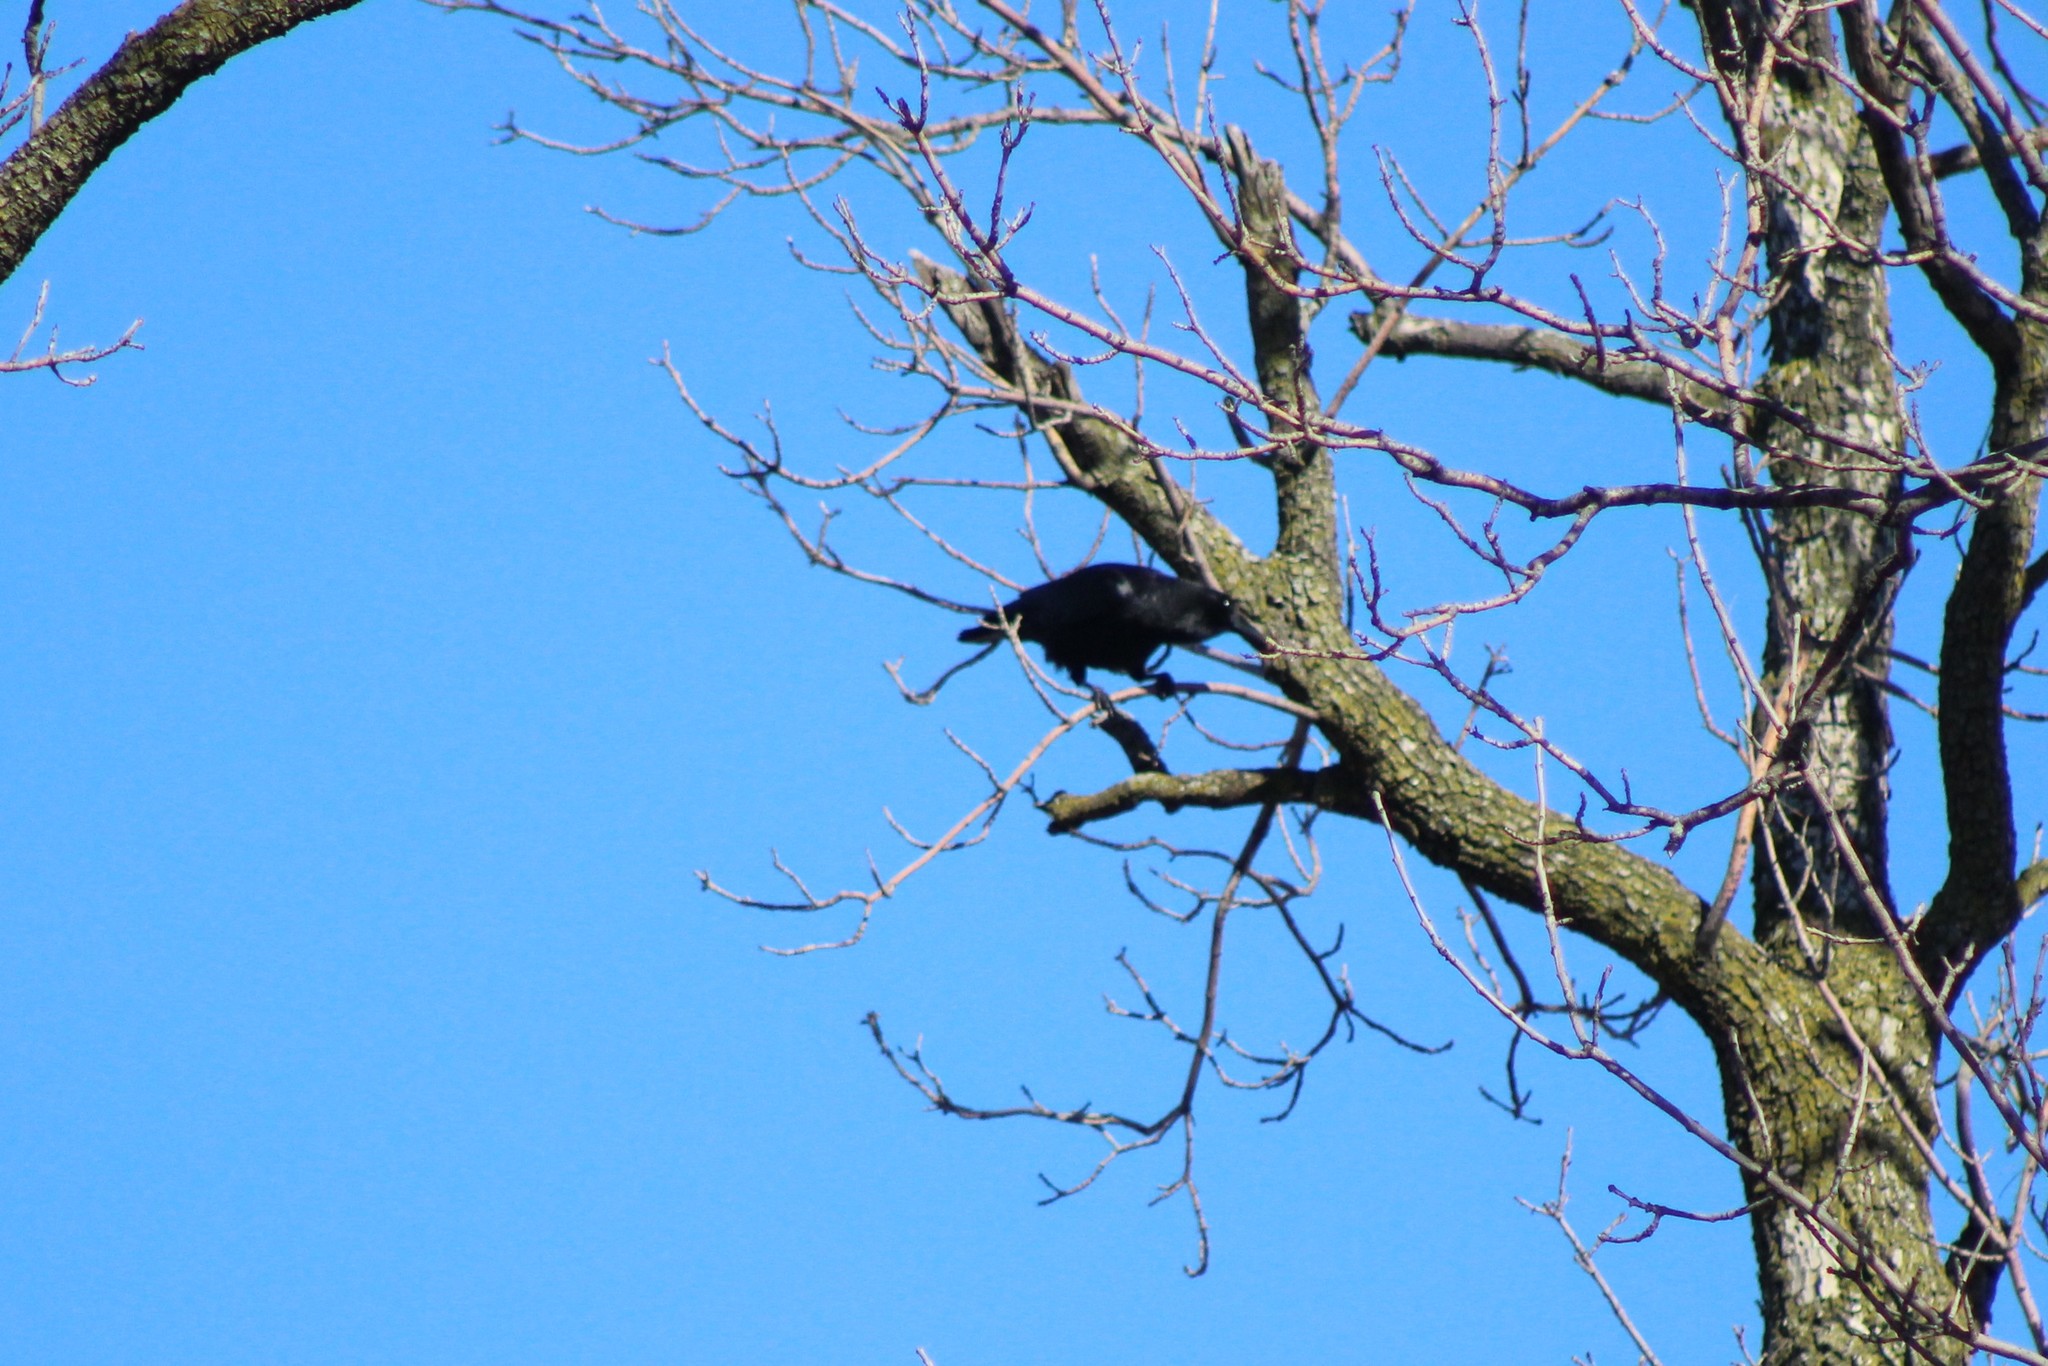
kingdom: Animalia
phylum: Chordata
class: Aves
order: Passeriformes
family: Corvidae
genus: Corvus
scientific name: Corvus brachyrhynchos
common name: American crow
